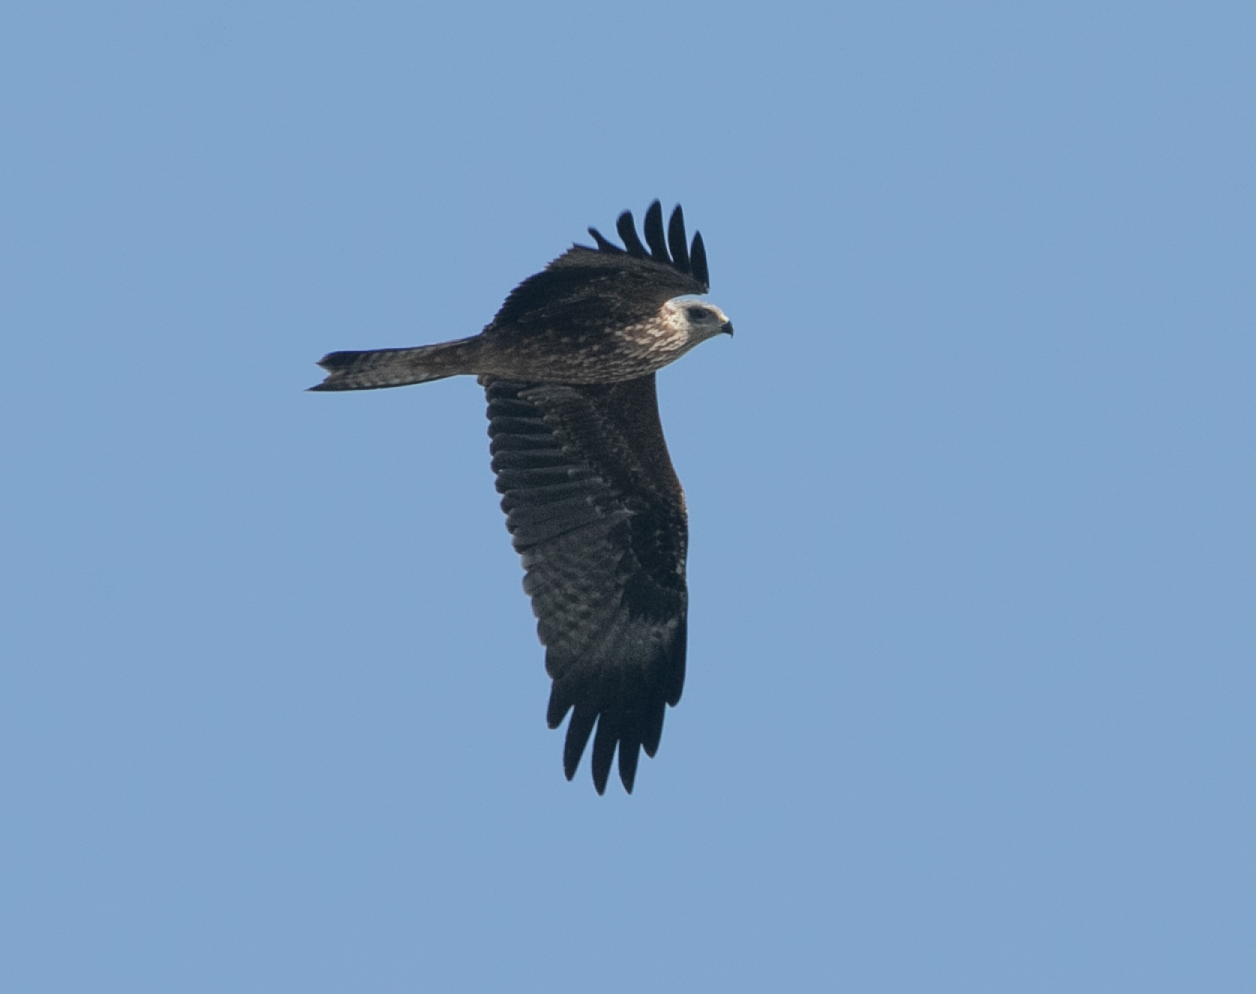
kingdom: Animalia
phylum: Chordata
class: Aves
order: Accipitriformes
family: Accipitridae
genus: Milvus
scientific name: Milvus migrans
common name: Black kite
